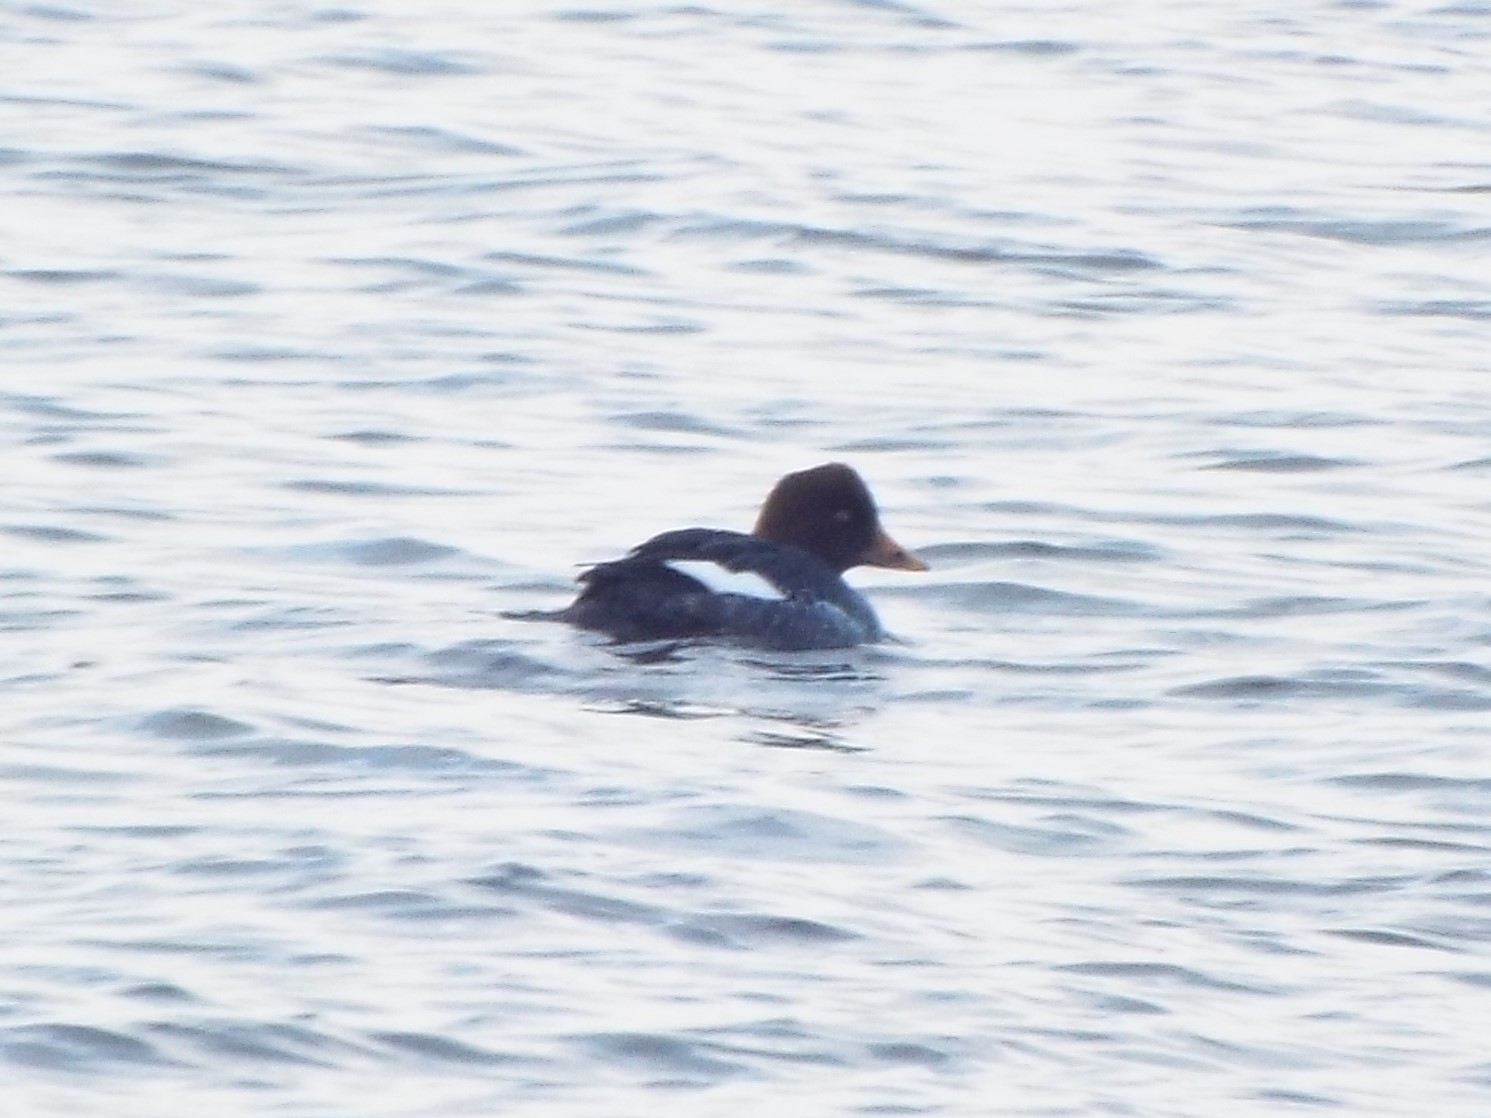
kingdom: Animalia
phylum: Chordata
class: Aves
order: Anseriformes
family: Anatidae
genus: Bucephala
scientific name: Bucephala islandica
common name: Barrow's goldeneye
